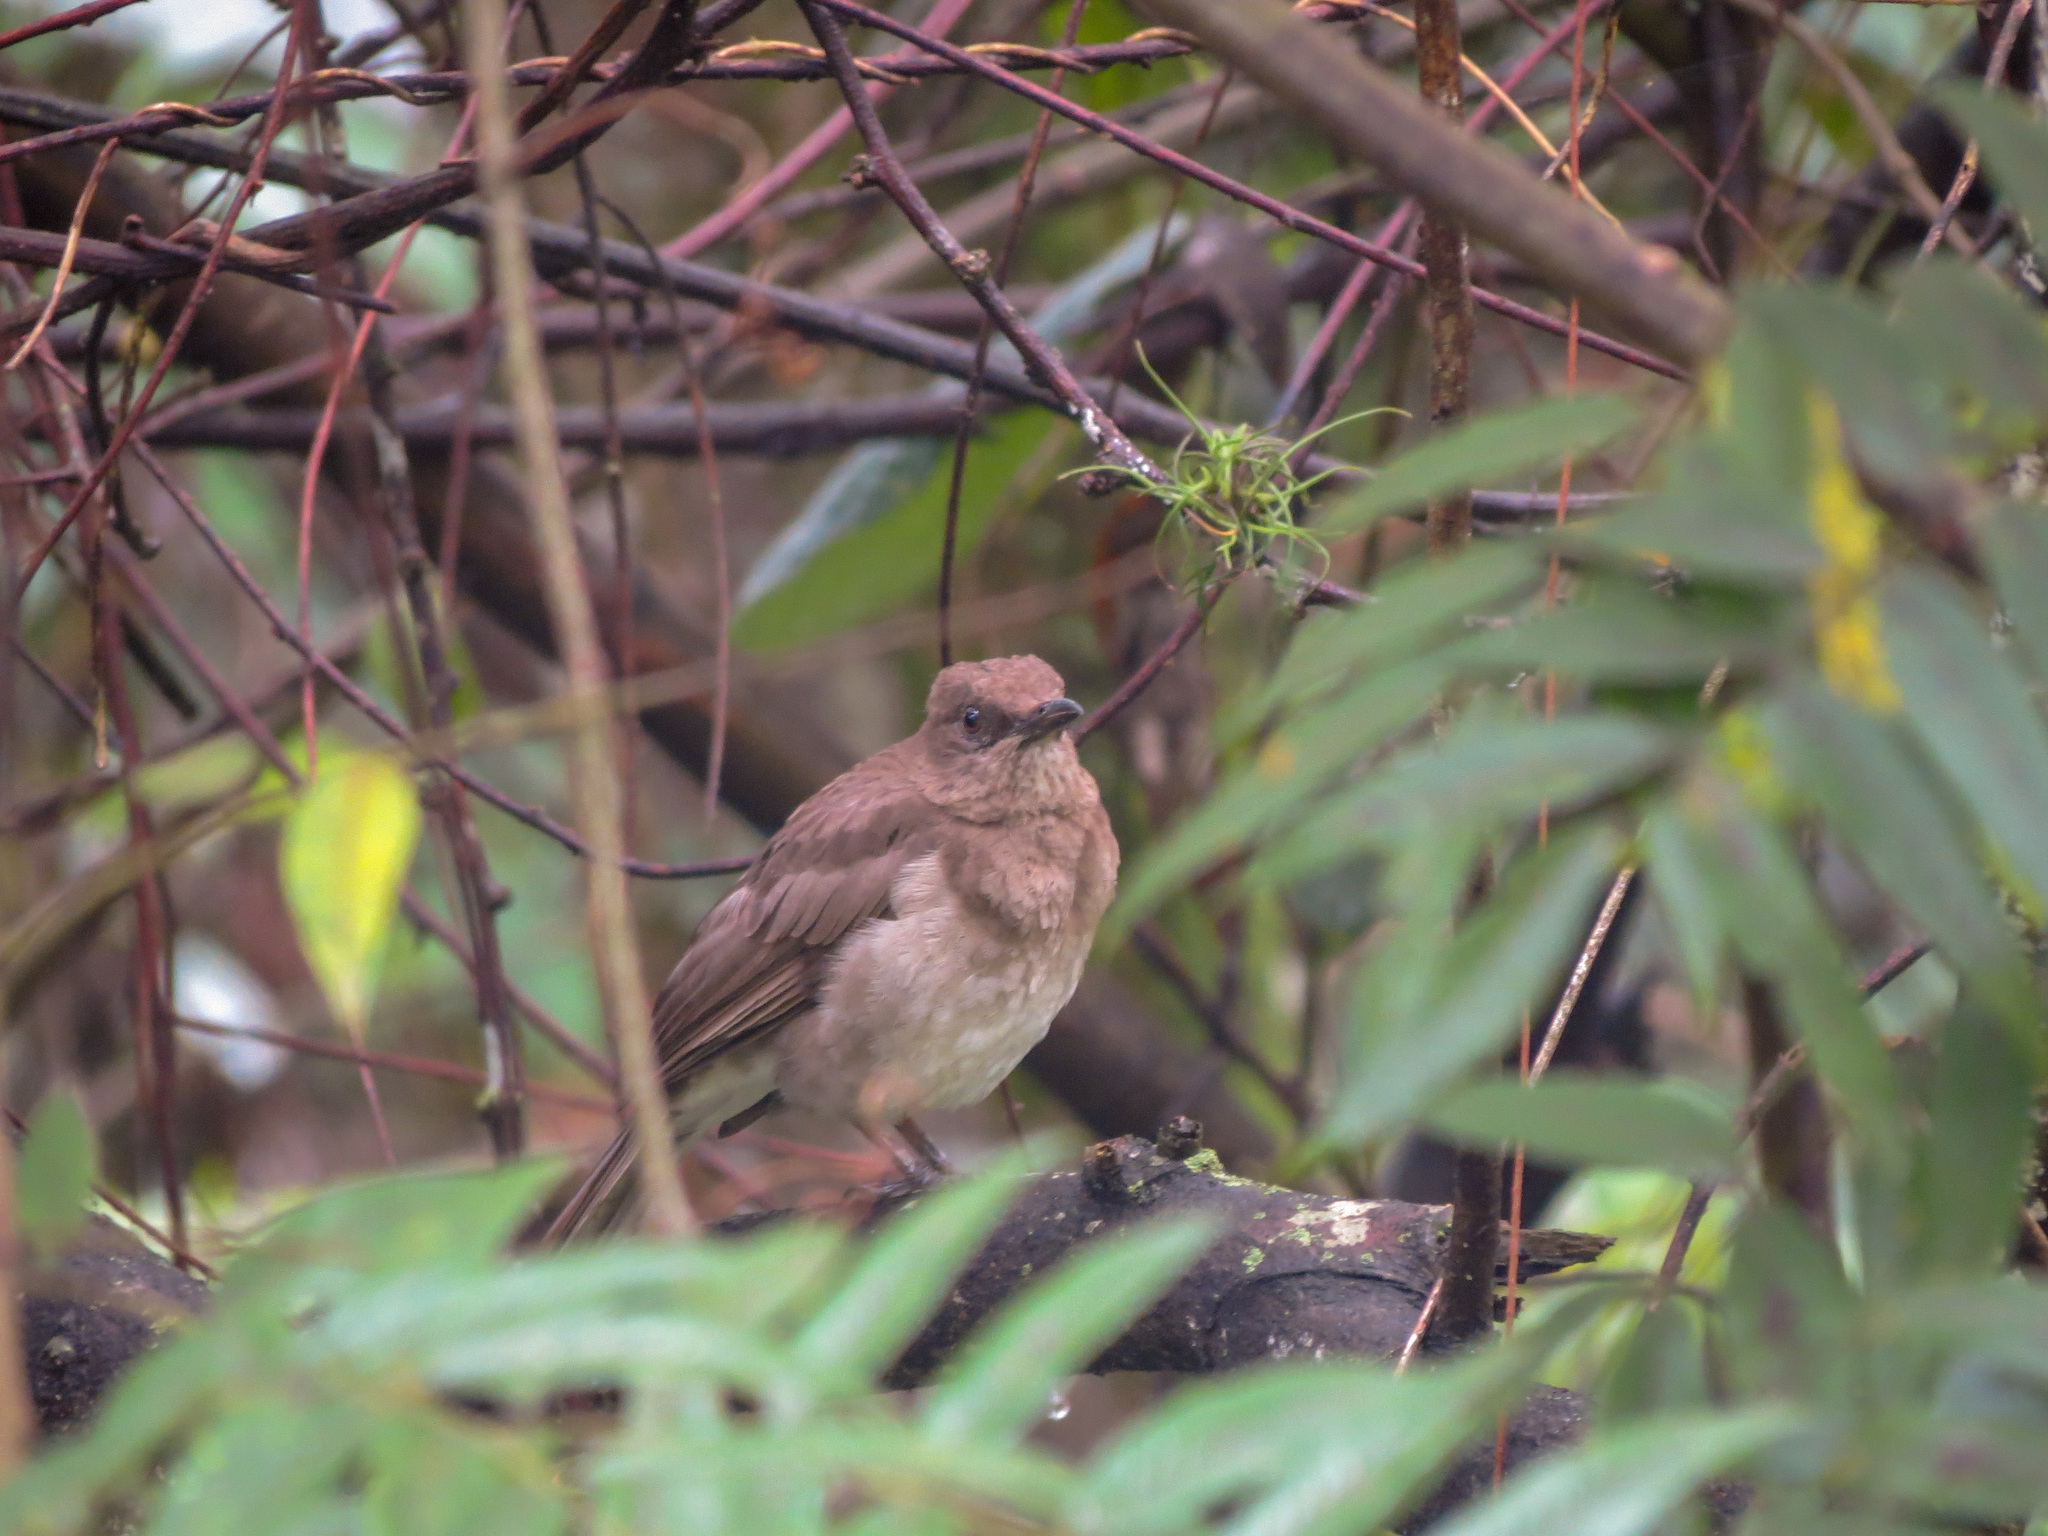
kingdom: Animalia
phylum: Chordata
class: Aves
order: Passeriformes
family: Turdidae
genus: Turdus
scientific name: Turdus ignobilis
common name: Black-billed thrush
